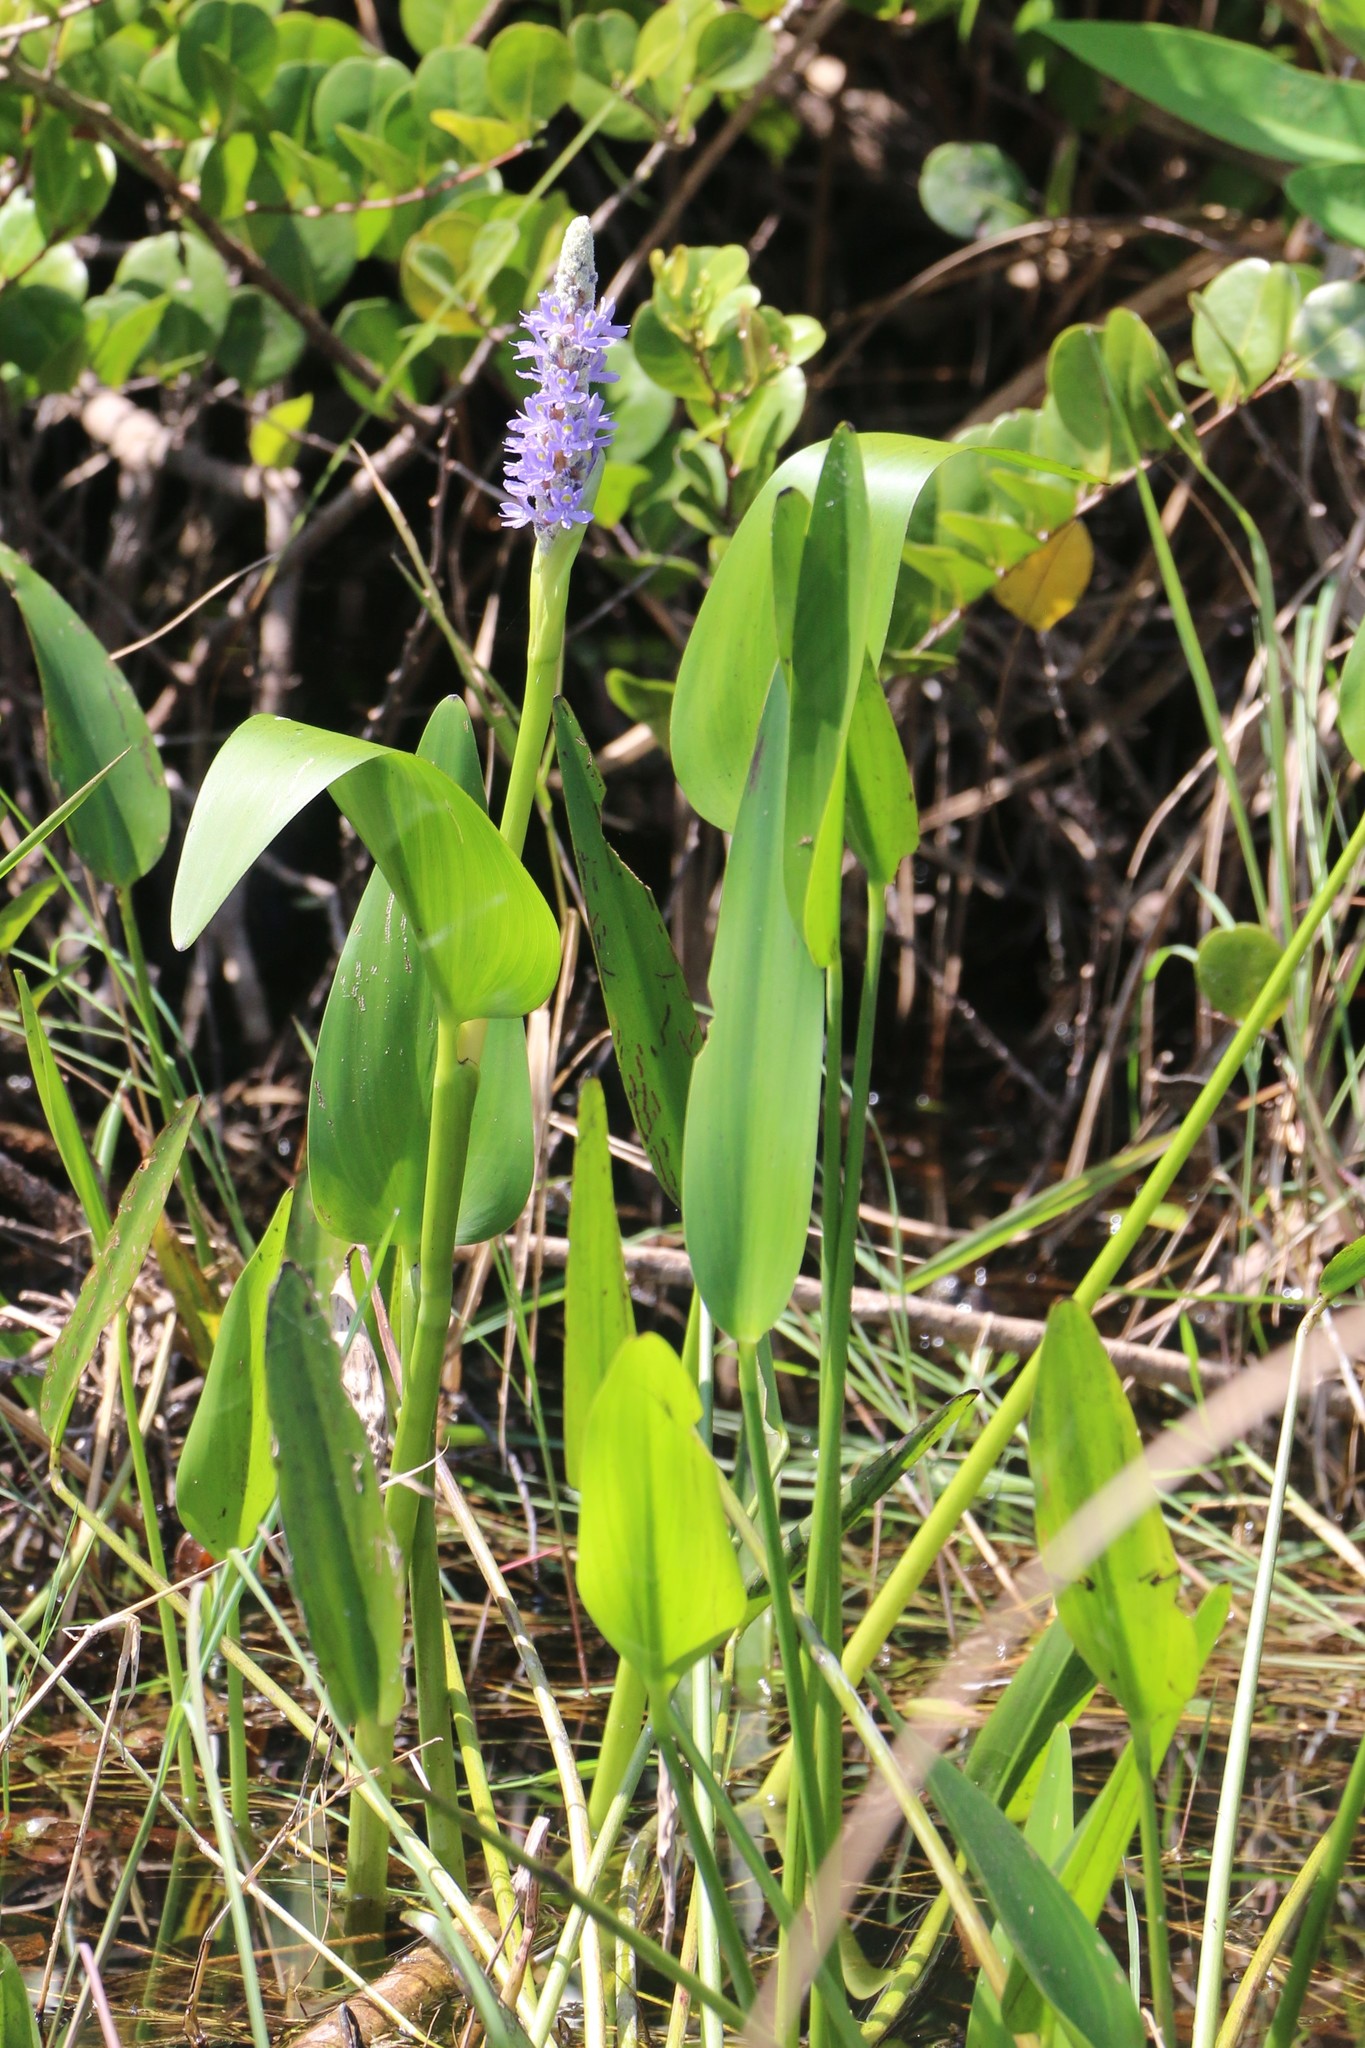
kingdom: Plantae
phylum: Tracheophyta
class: Liliopsida
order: Commelinales
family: Pontederiaceae
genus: Pontederia
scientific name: Pontederia cordata
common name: Pickerelweed
